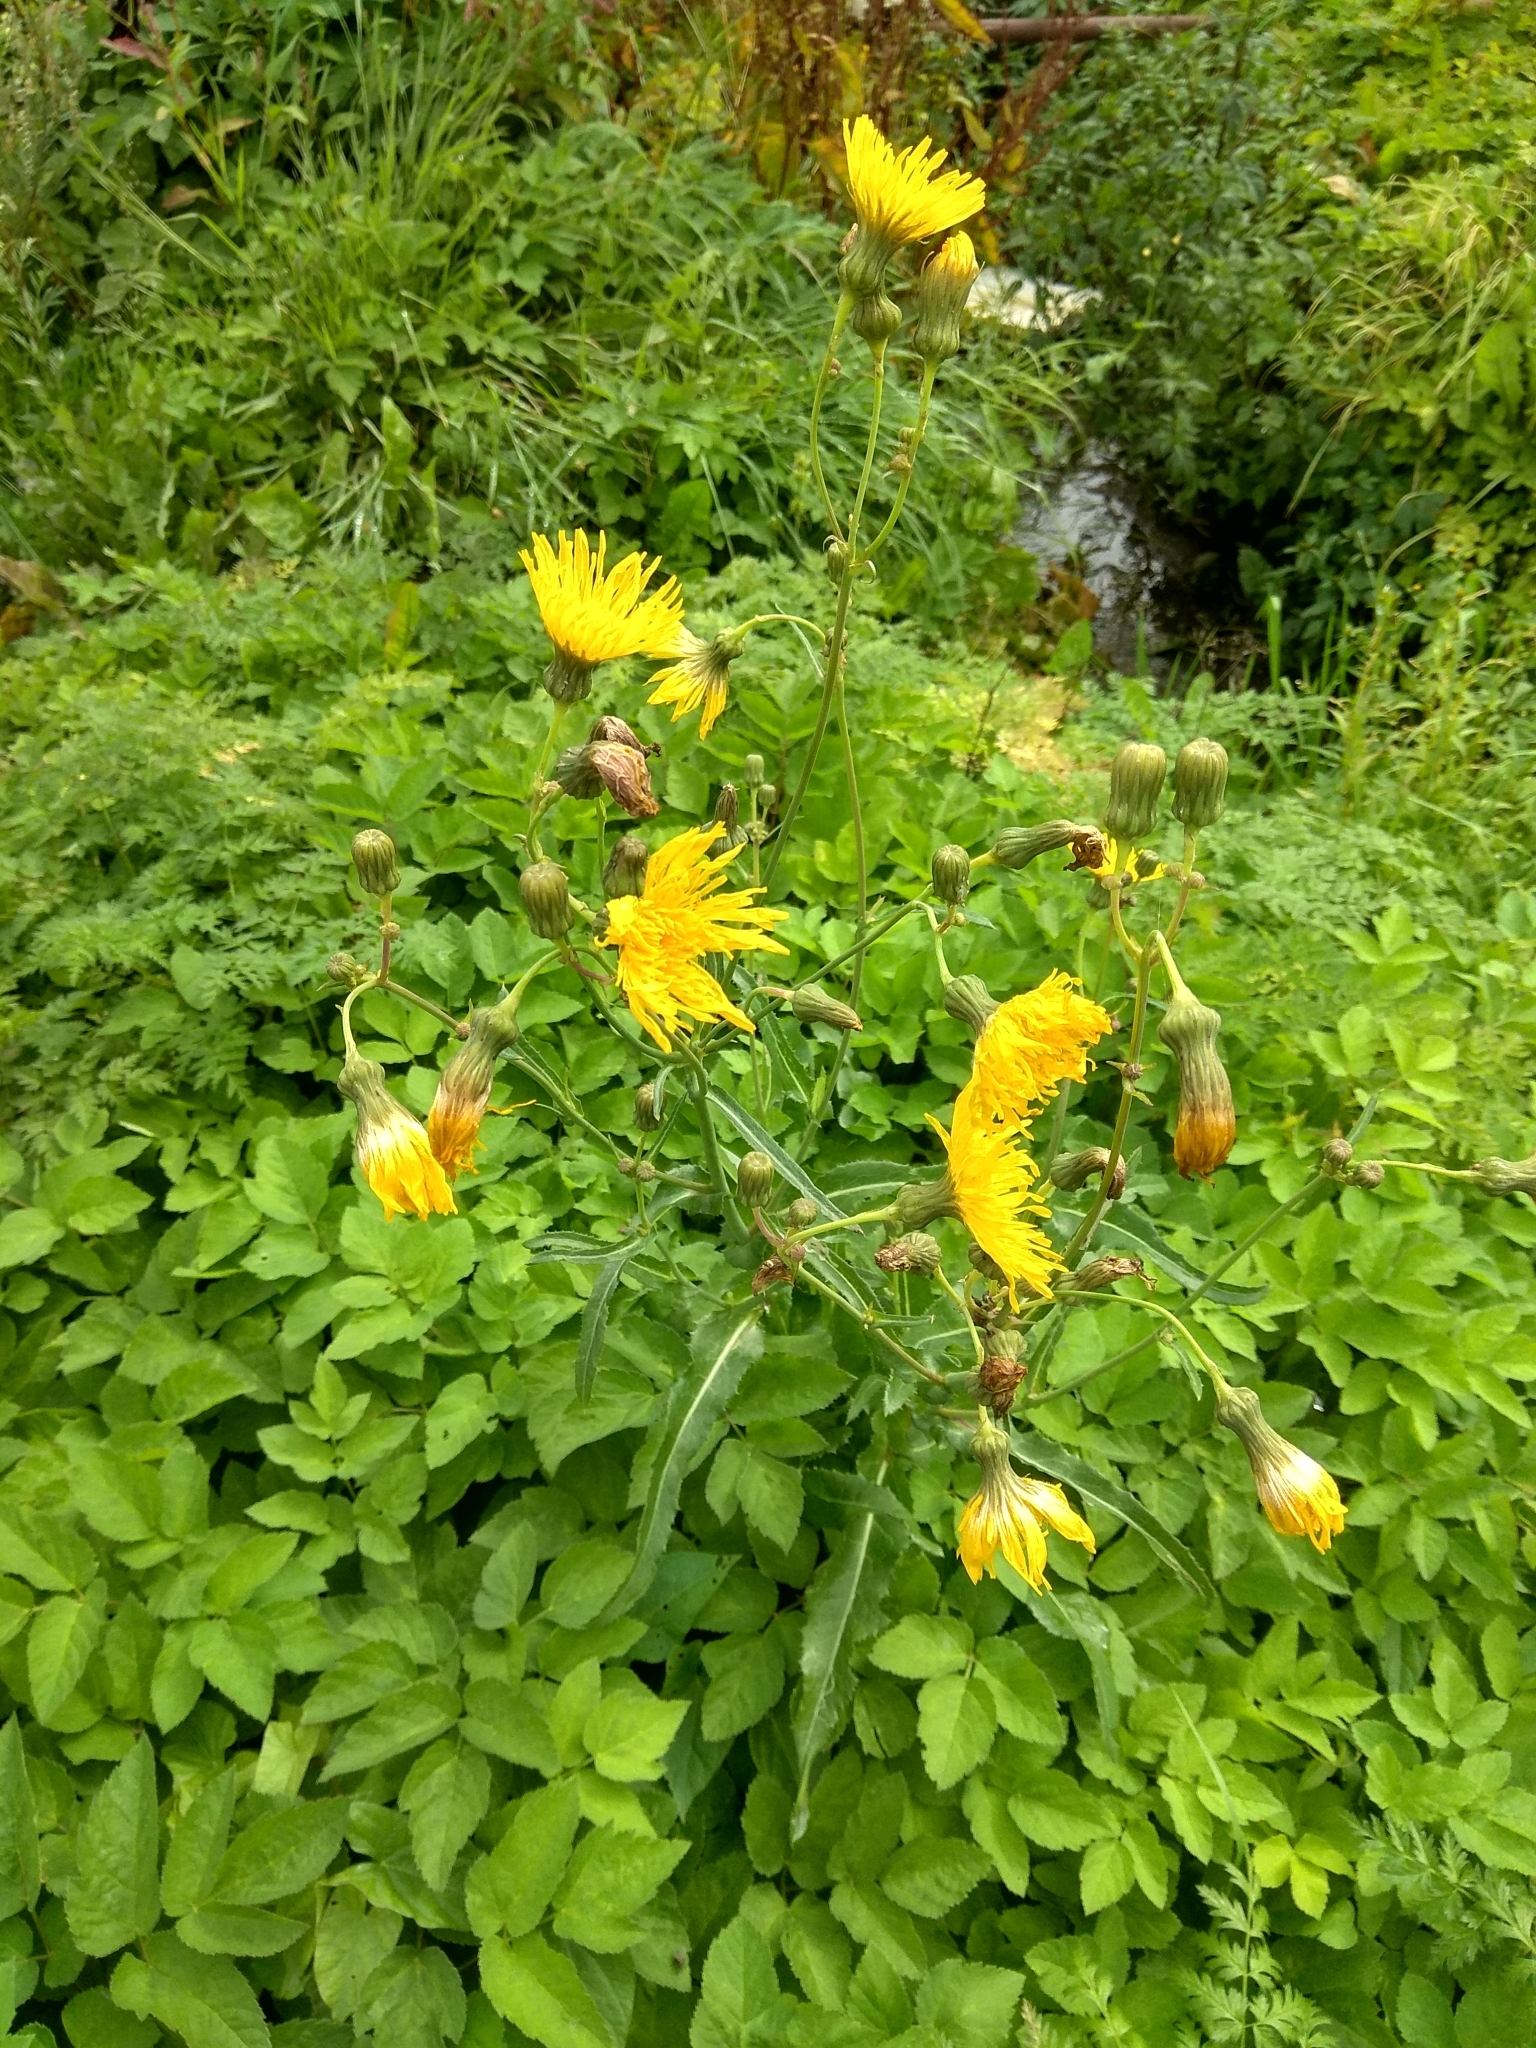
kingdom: Plantae
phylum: Tracheophyta
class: Magnoliopsida
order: Asterales
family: Asteraceae
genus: Sonchus
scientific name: Sonchus arvensis
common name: Perennial sow-thistle
